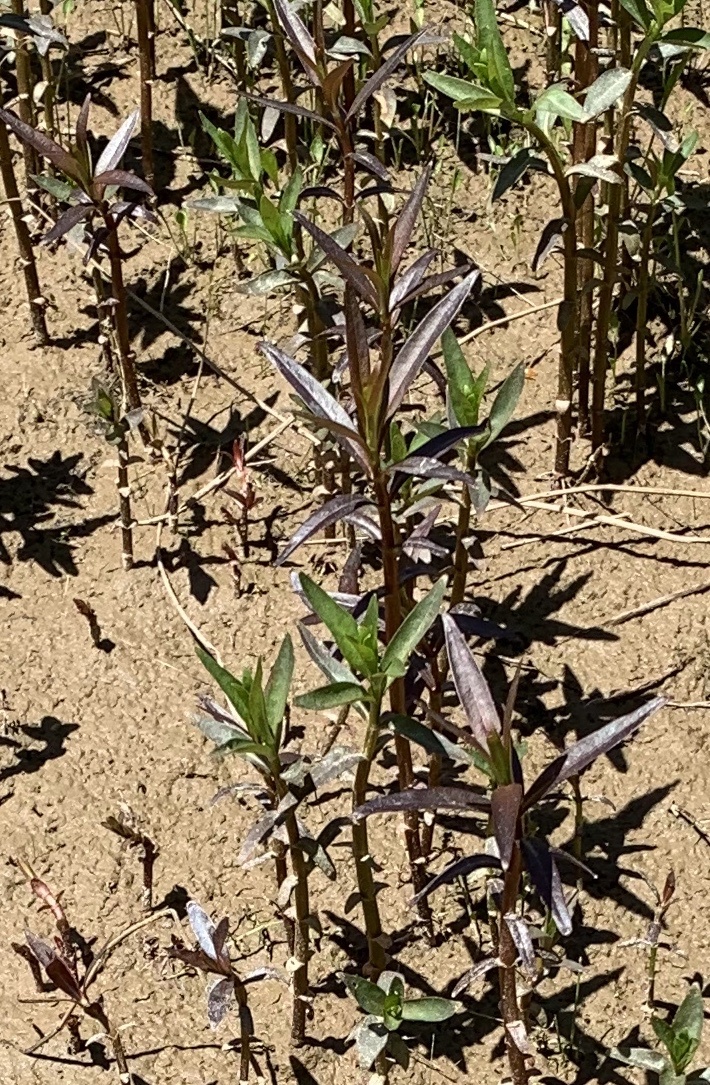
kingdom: Plantae
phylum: Tracheophyta
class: Magnoliopsida
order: Ericales
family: Primulaceae
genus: Lysimachia
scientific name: Lysimachia terrestris
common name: Lake loosestrife
